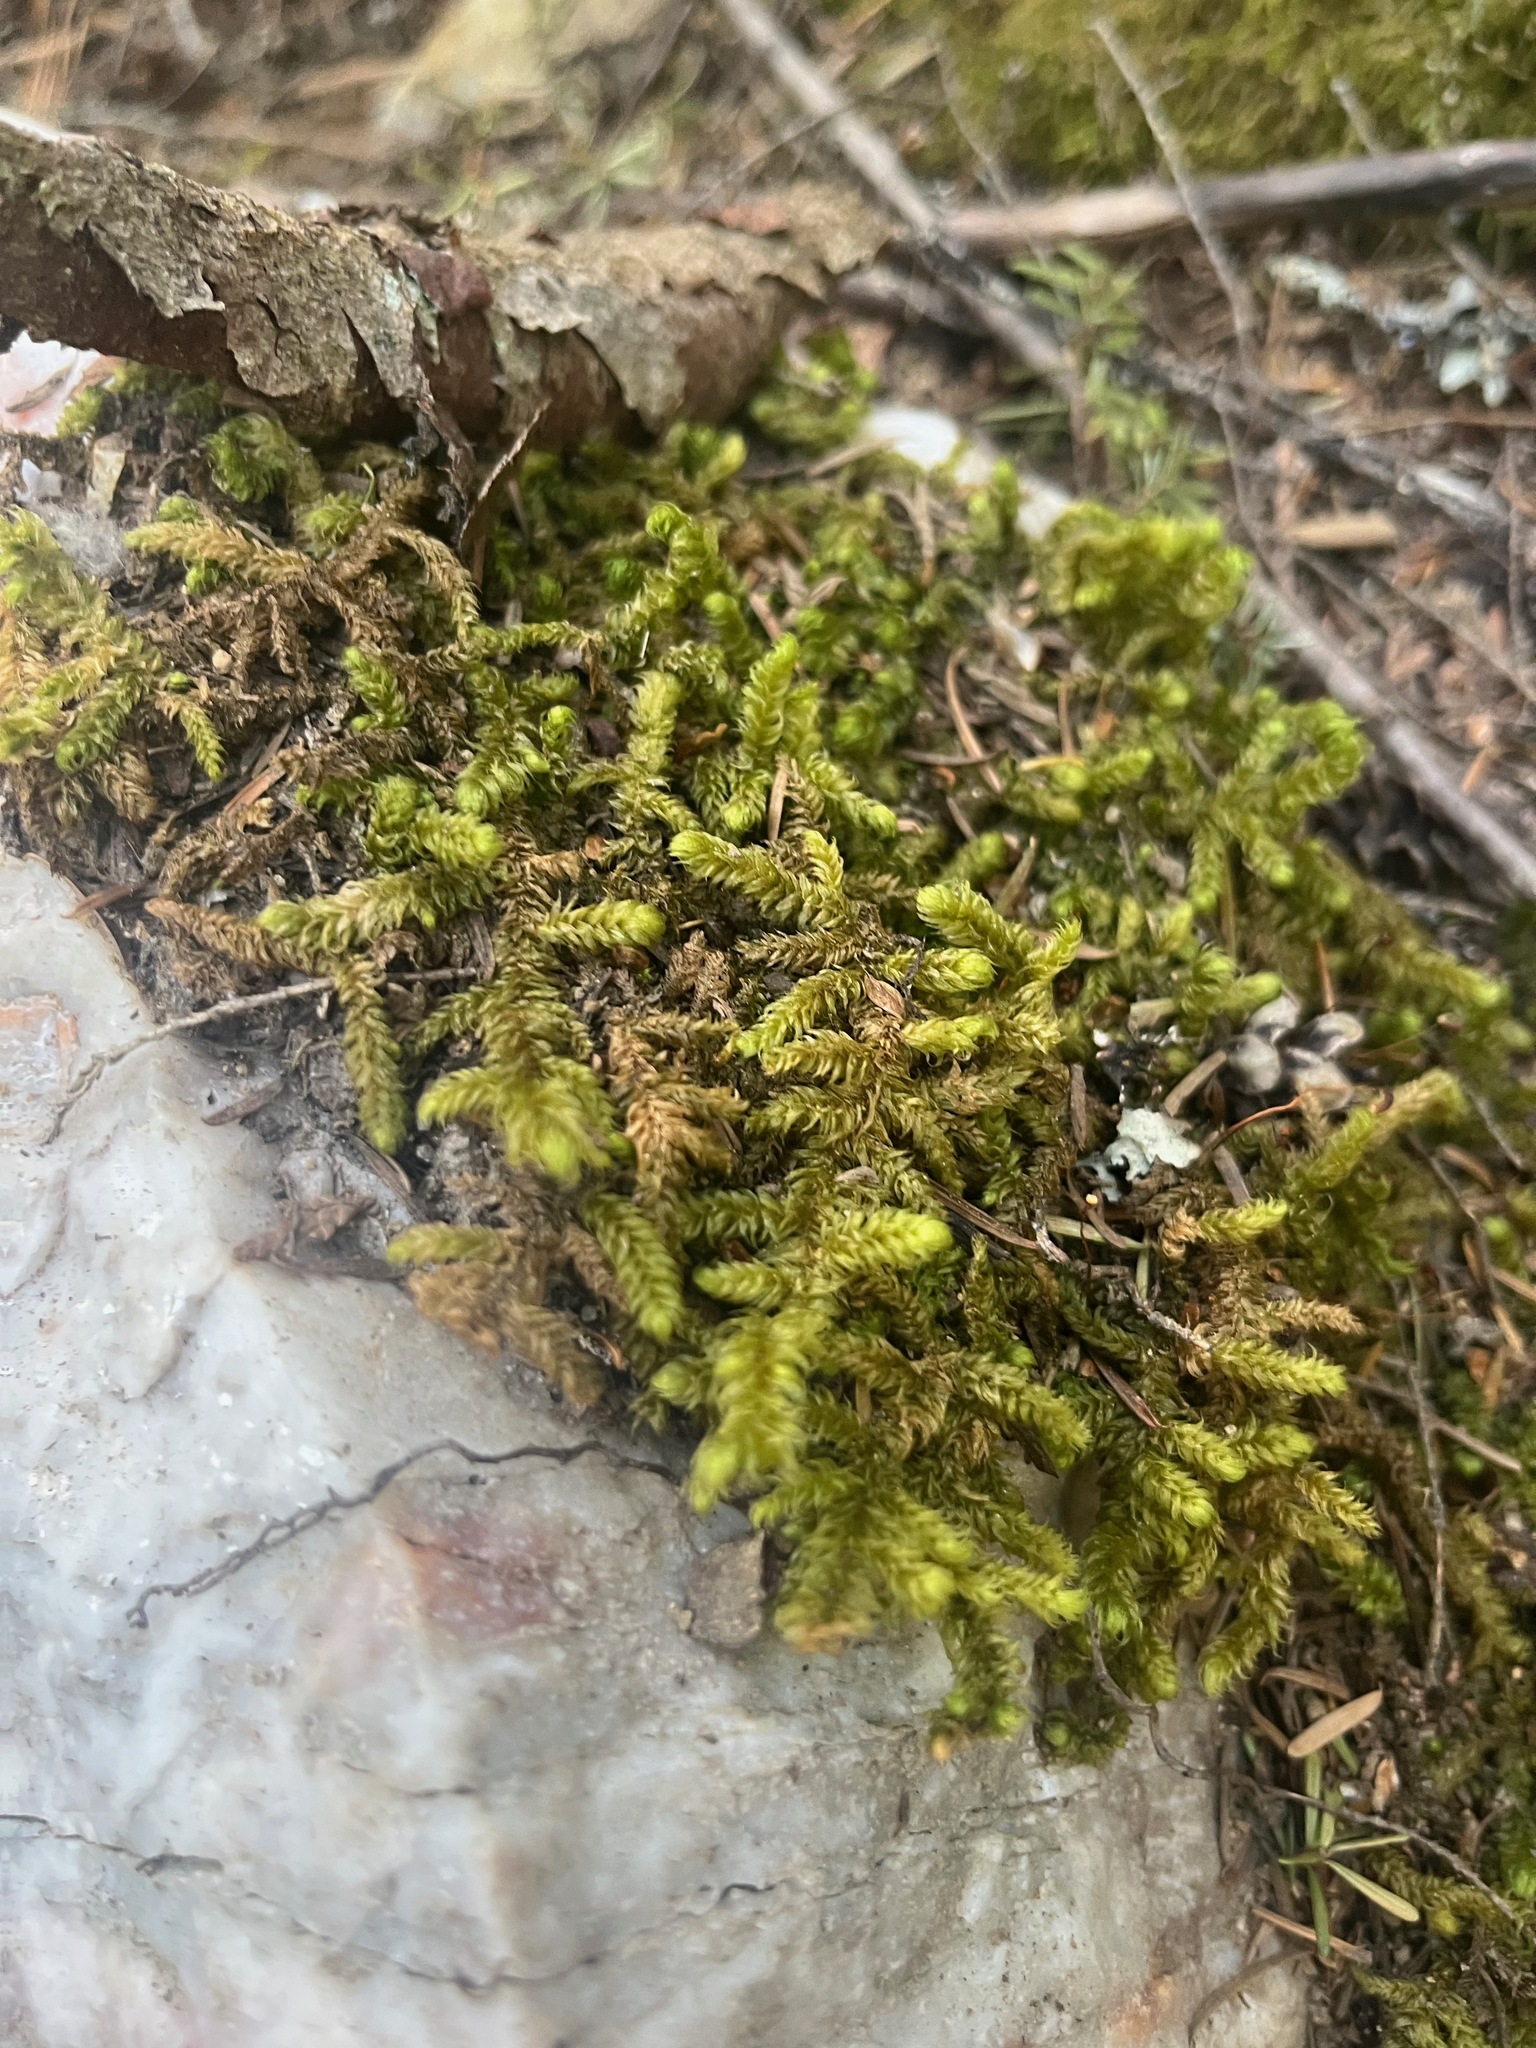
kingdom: Plantae
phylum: Bryophyta
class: Bryopsida
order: Hypnales
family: Hylocomiaceae
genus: Rhytidiopsis
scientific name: Rhytidiopsis robusta
